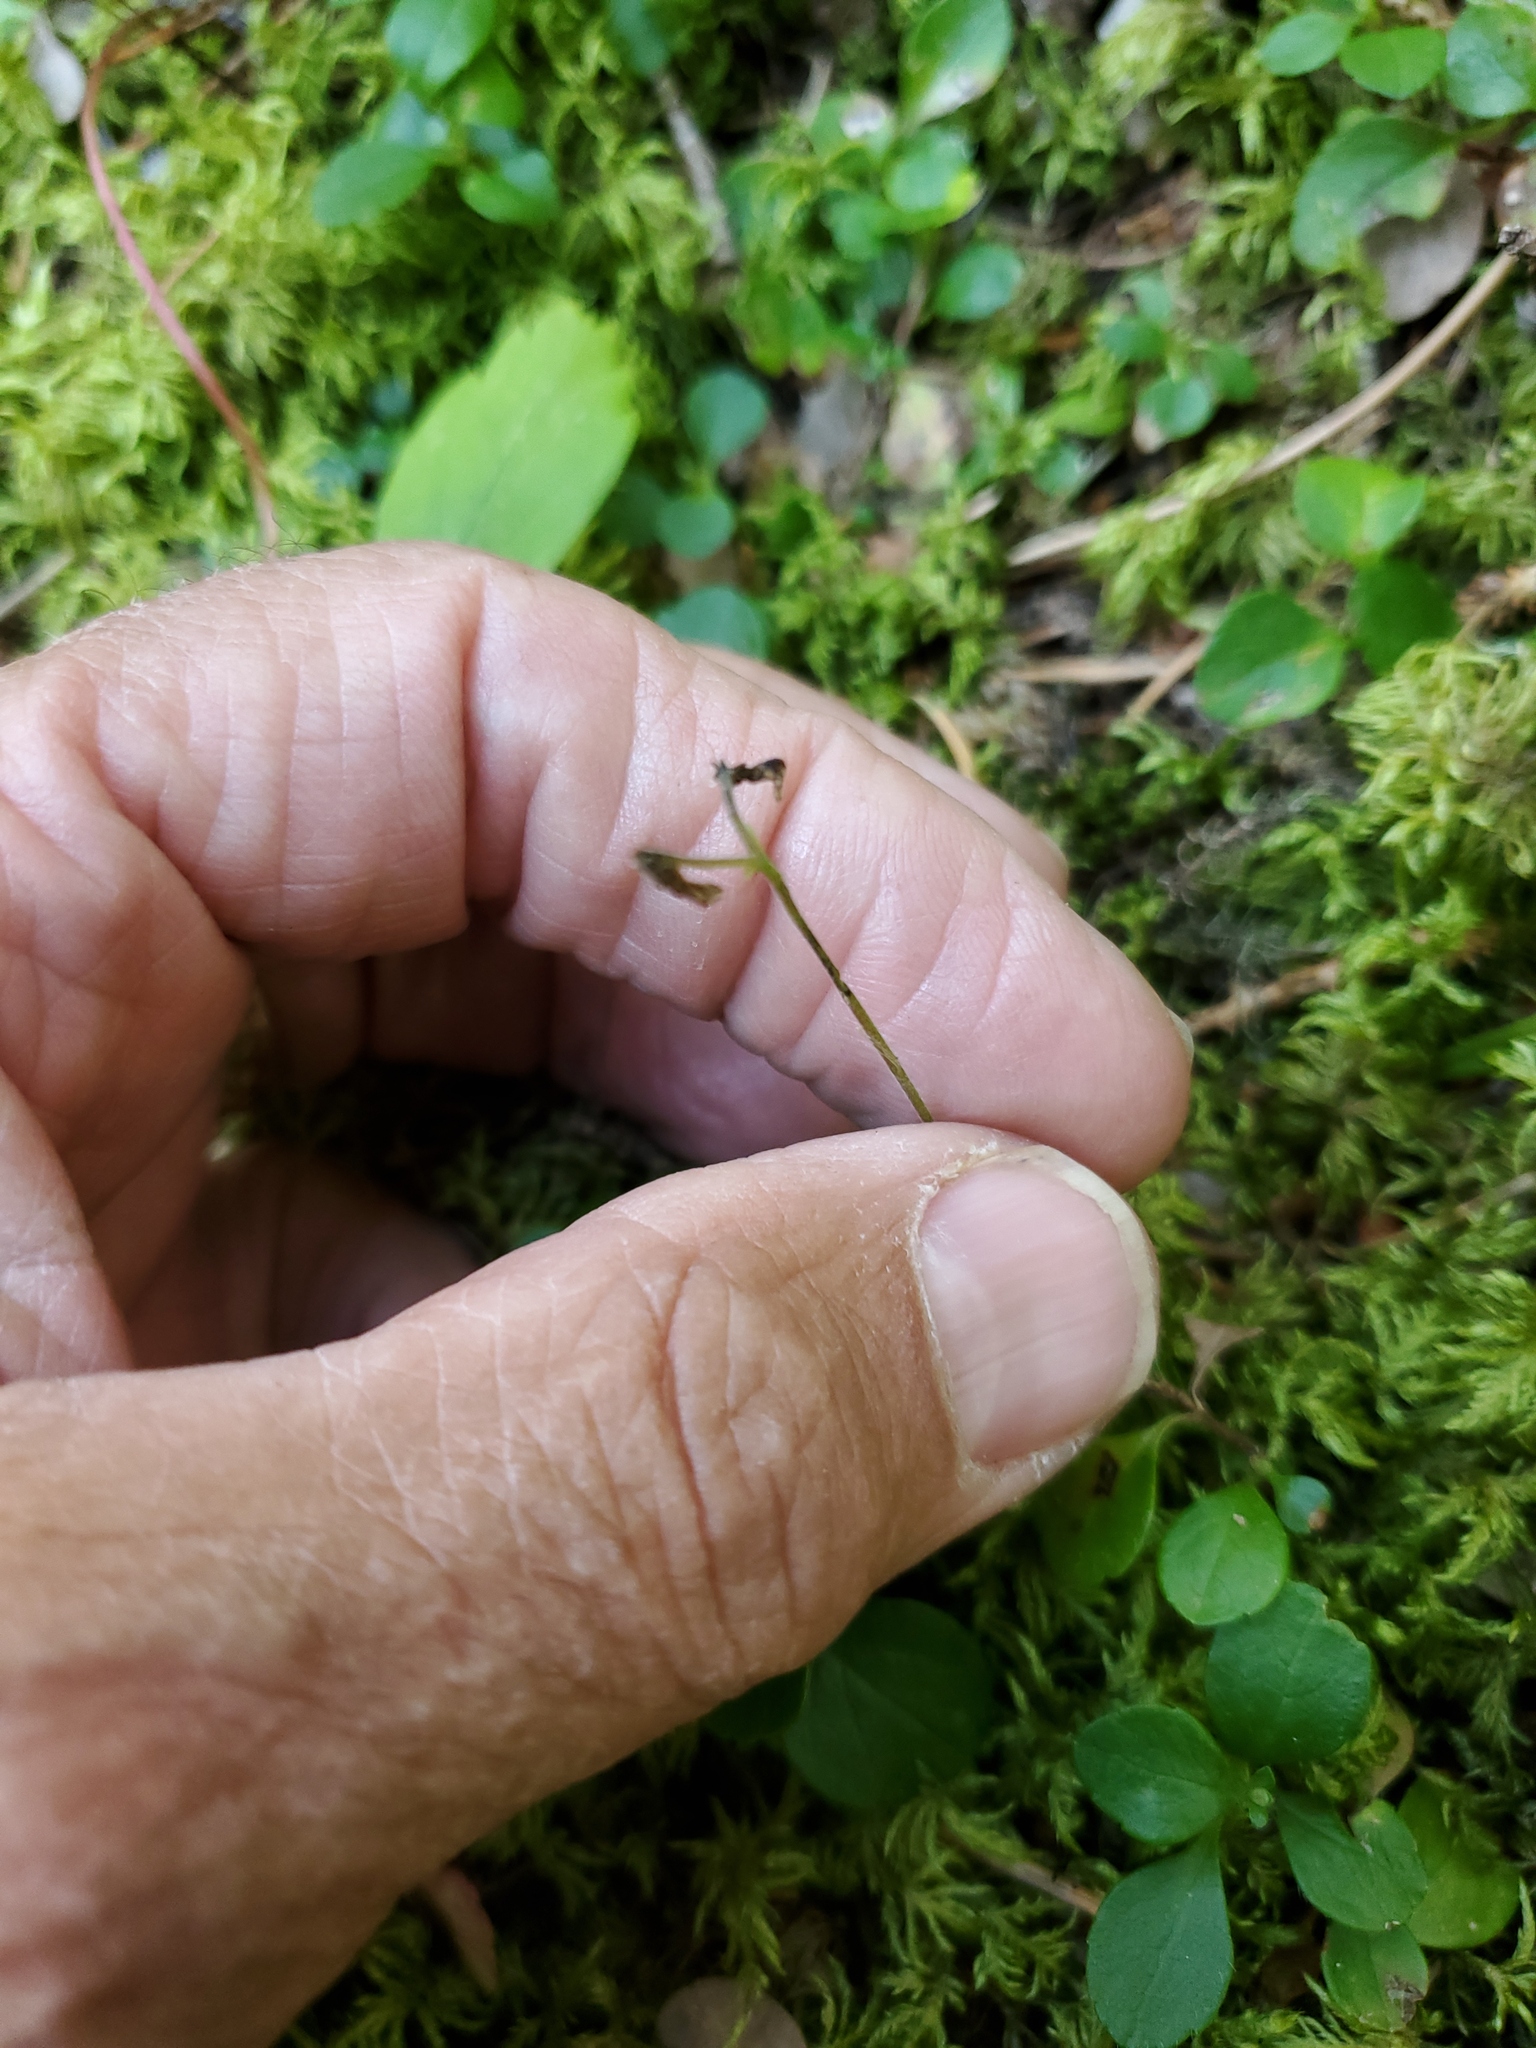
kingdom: Plantae
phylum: Tracheophyta
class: Magnoliopsida
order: Dipsacales
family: Caprifoliaceae
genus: Linnaea
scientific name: Linnaea borealis
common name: Twinflower
